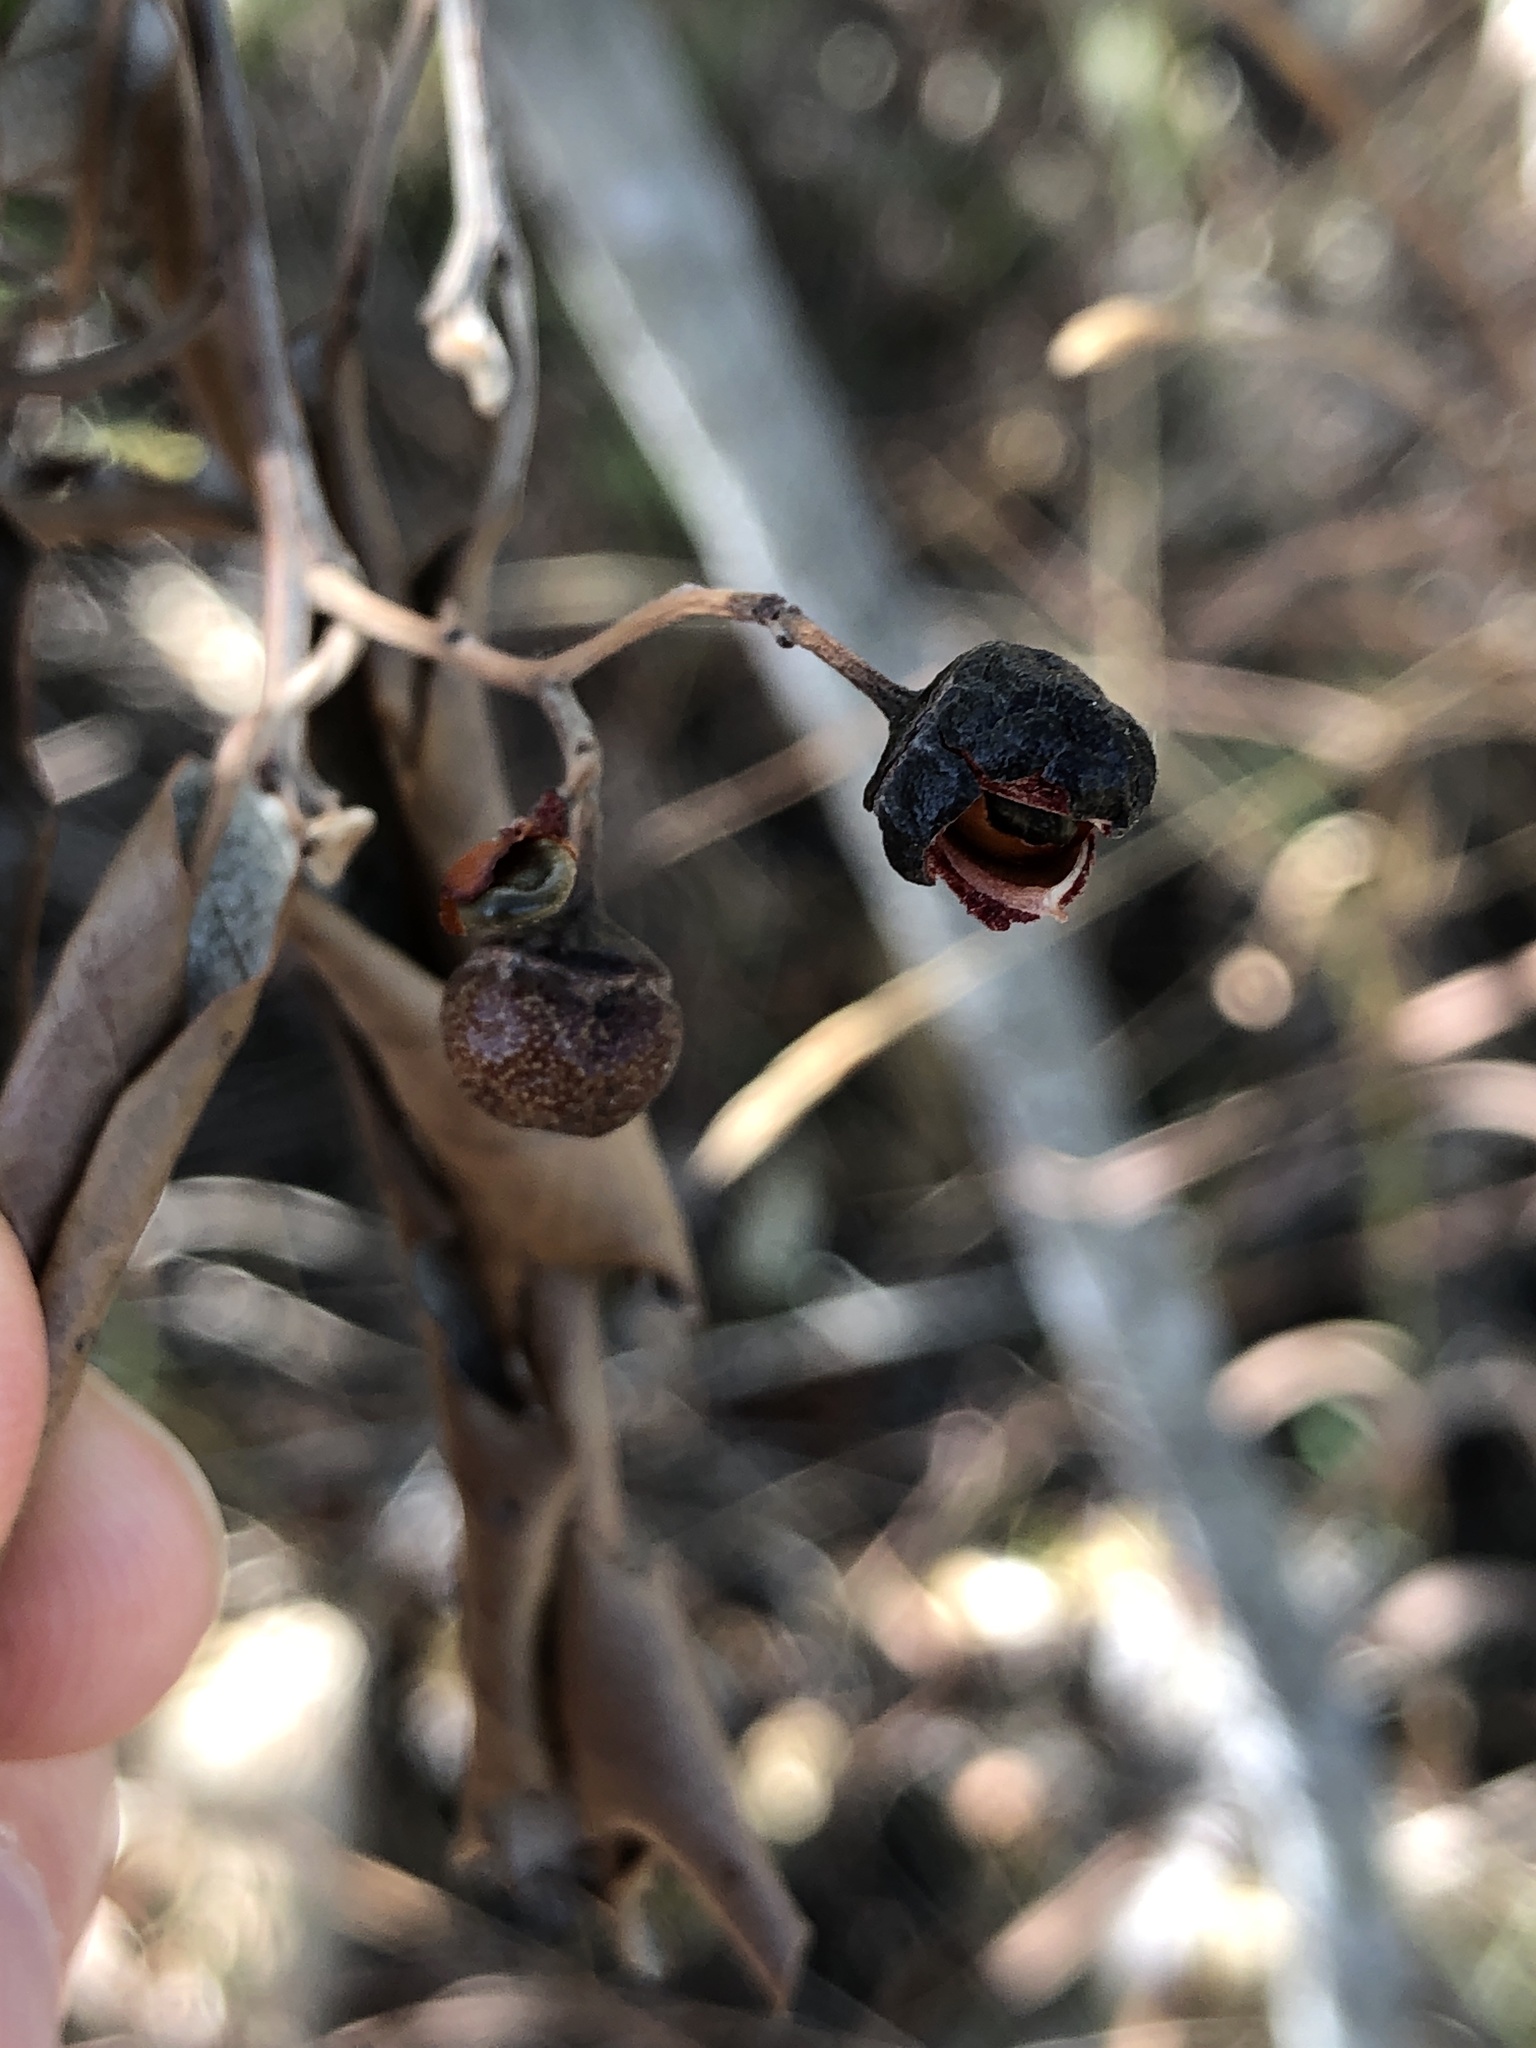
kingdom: Plantae
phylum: Tracheophyta
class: Magnoliopsida
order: Rosales
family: Rhamnaceae
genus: Alphitonia
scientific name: Alphitonia excelsa
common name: Red ash
